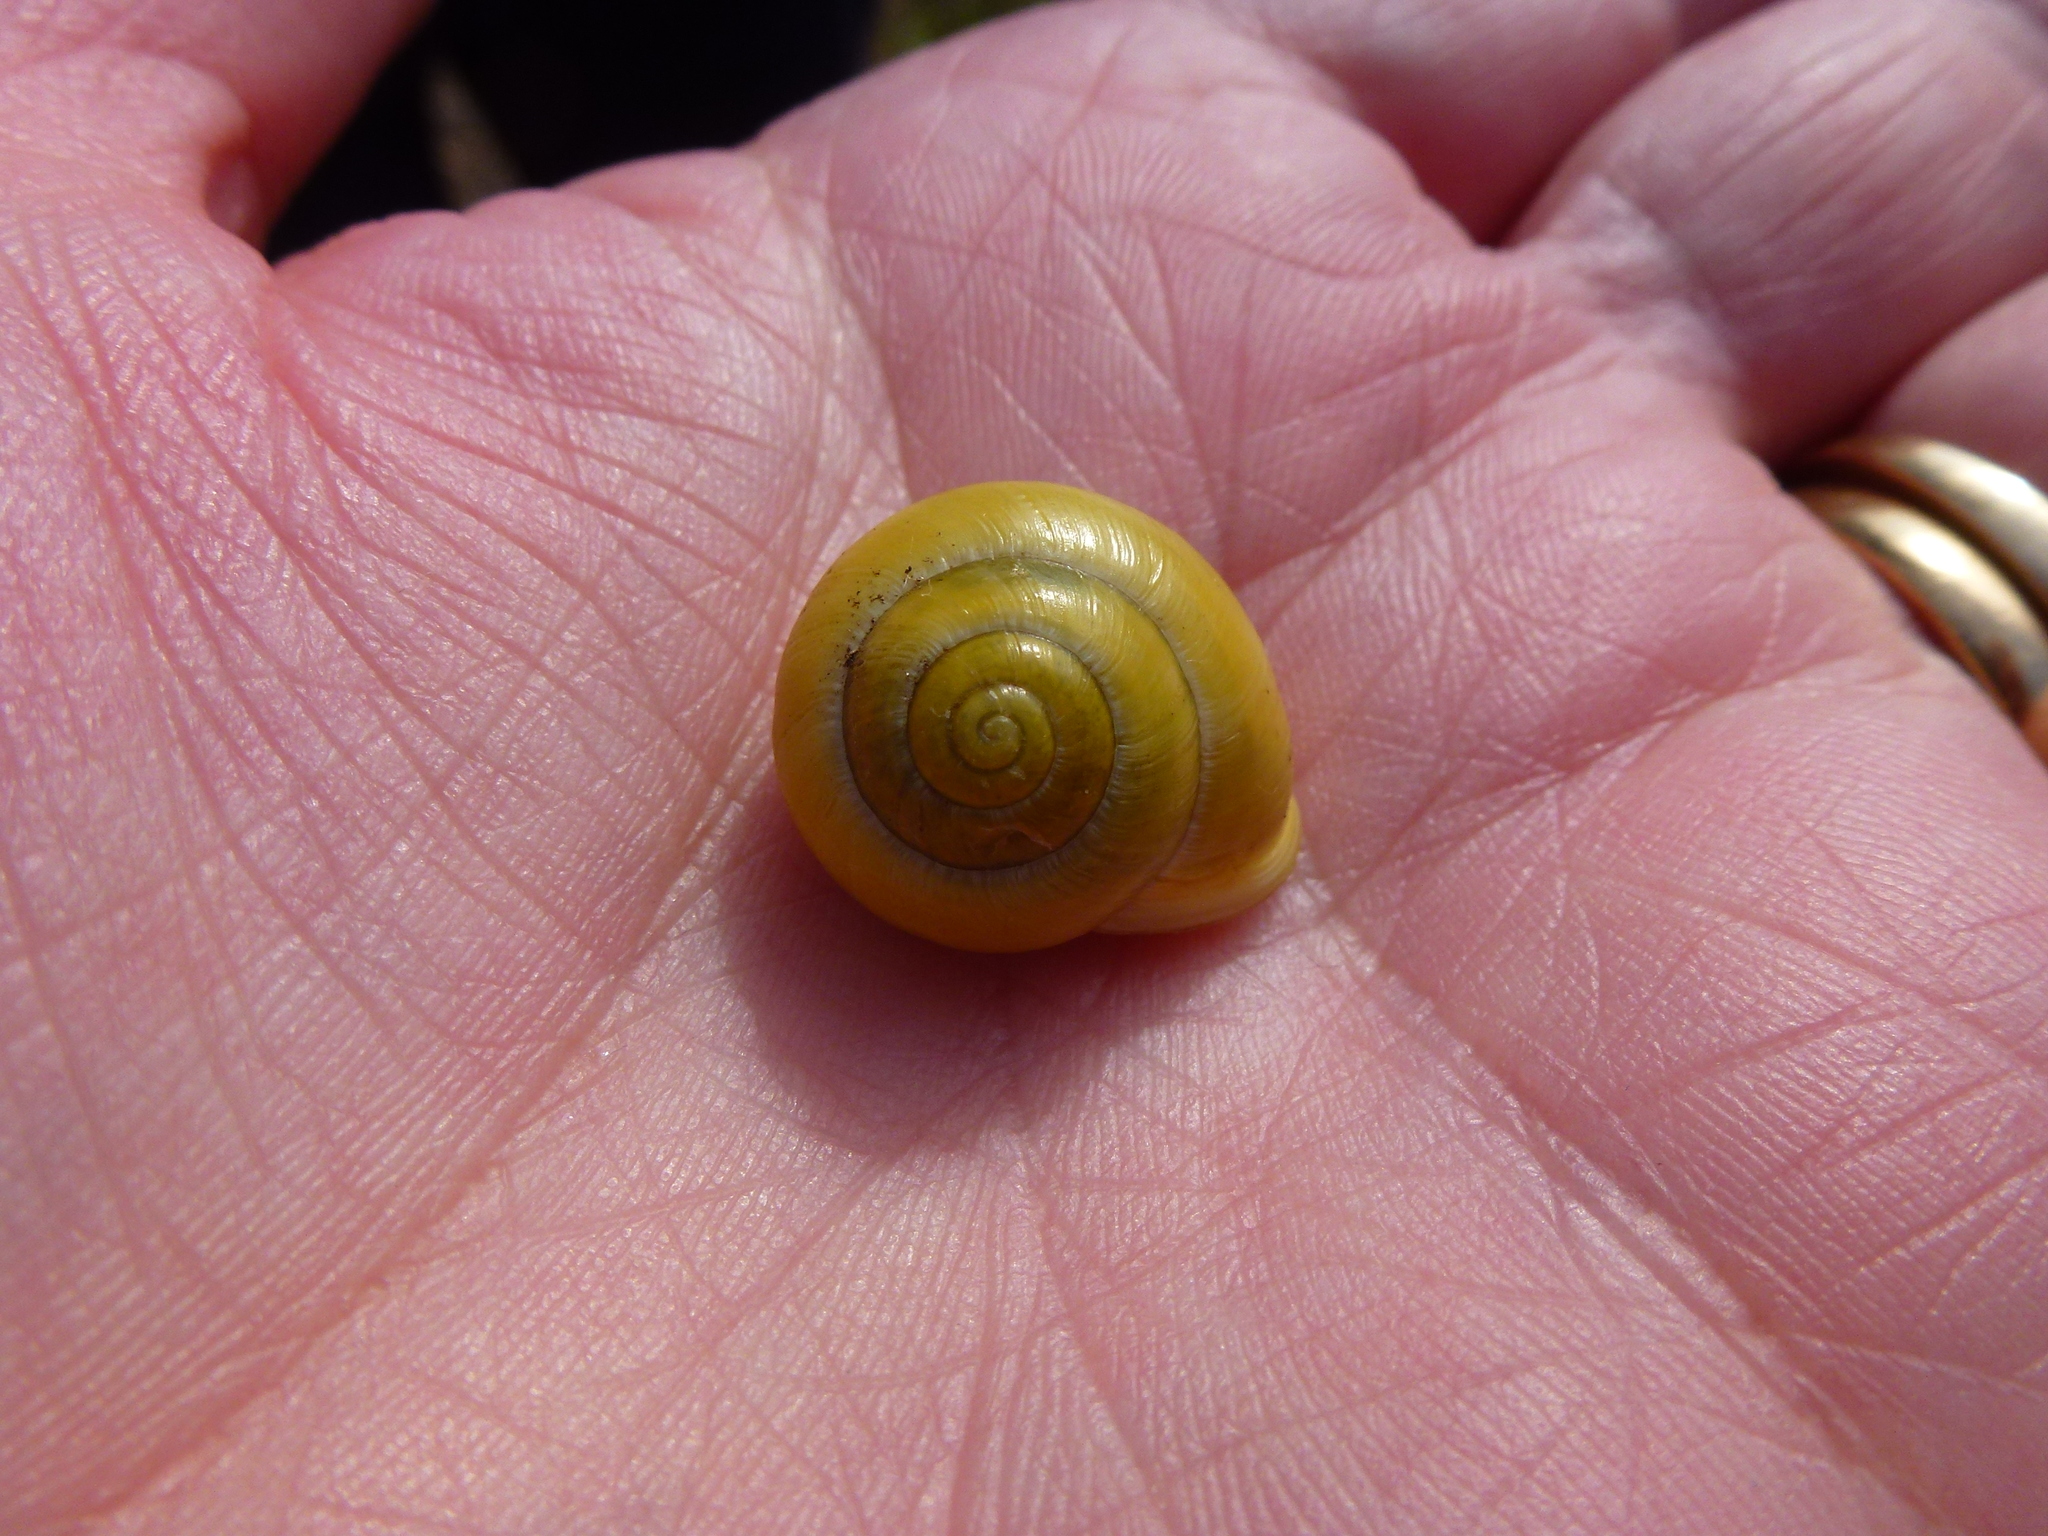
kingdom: Animalia
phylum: Mollusca
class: Gastropoda
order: Stylommatophora
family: Helicidae
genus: Cepaea
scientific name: Cepaea hortensis
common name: White-lip gardensnail
